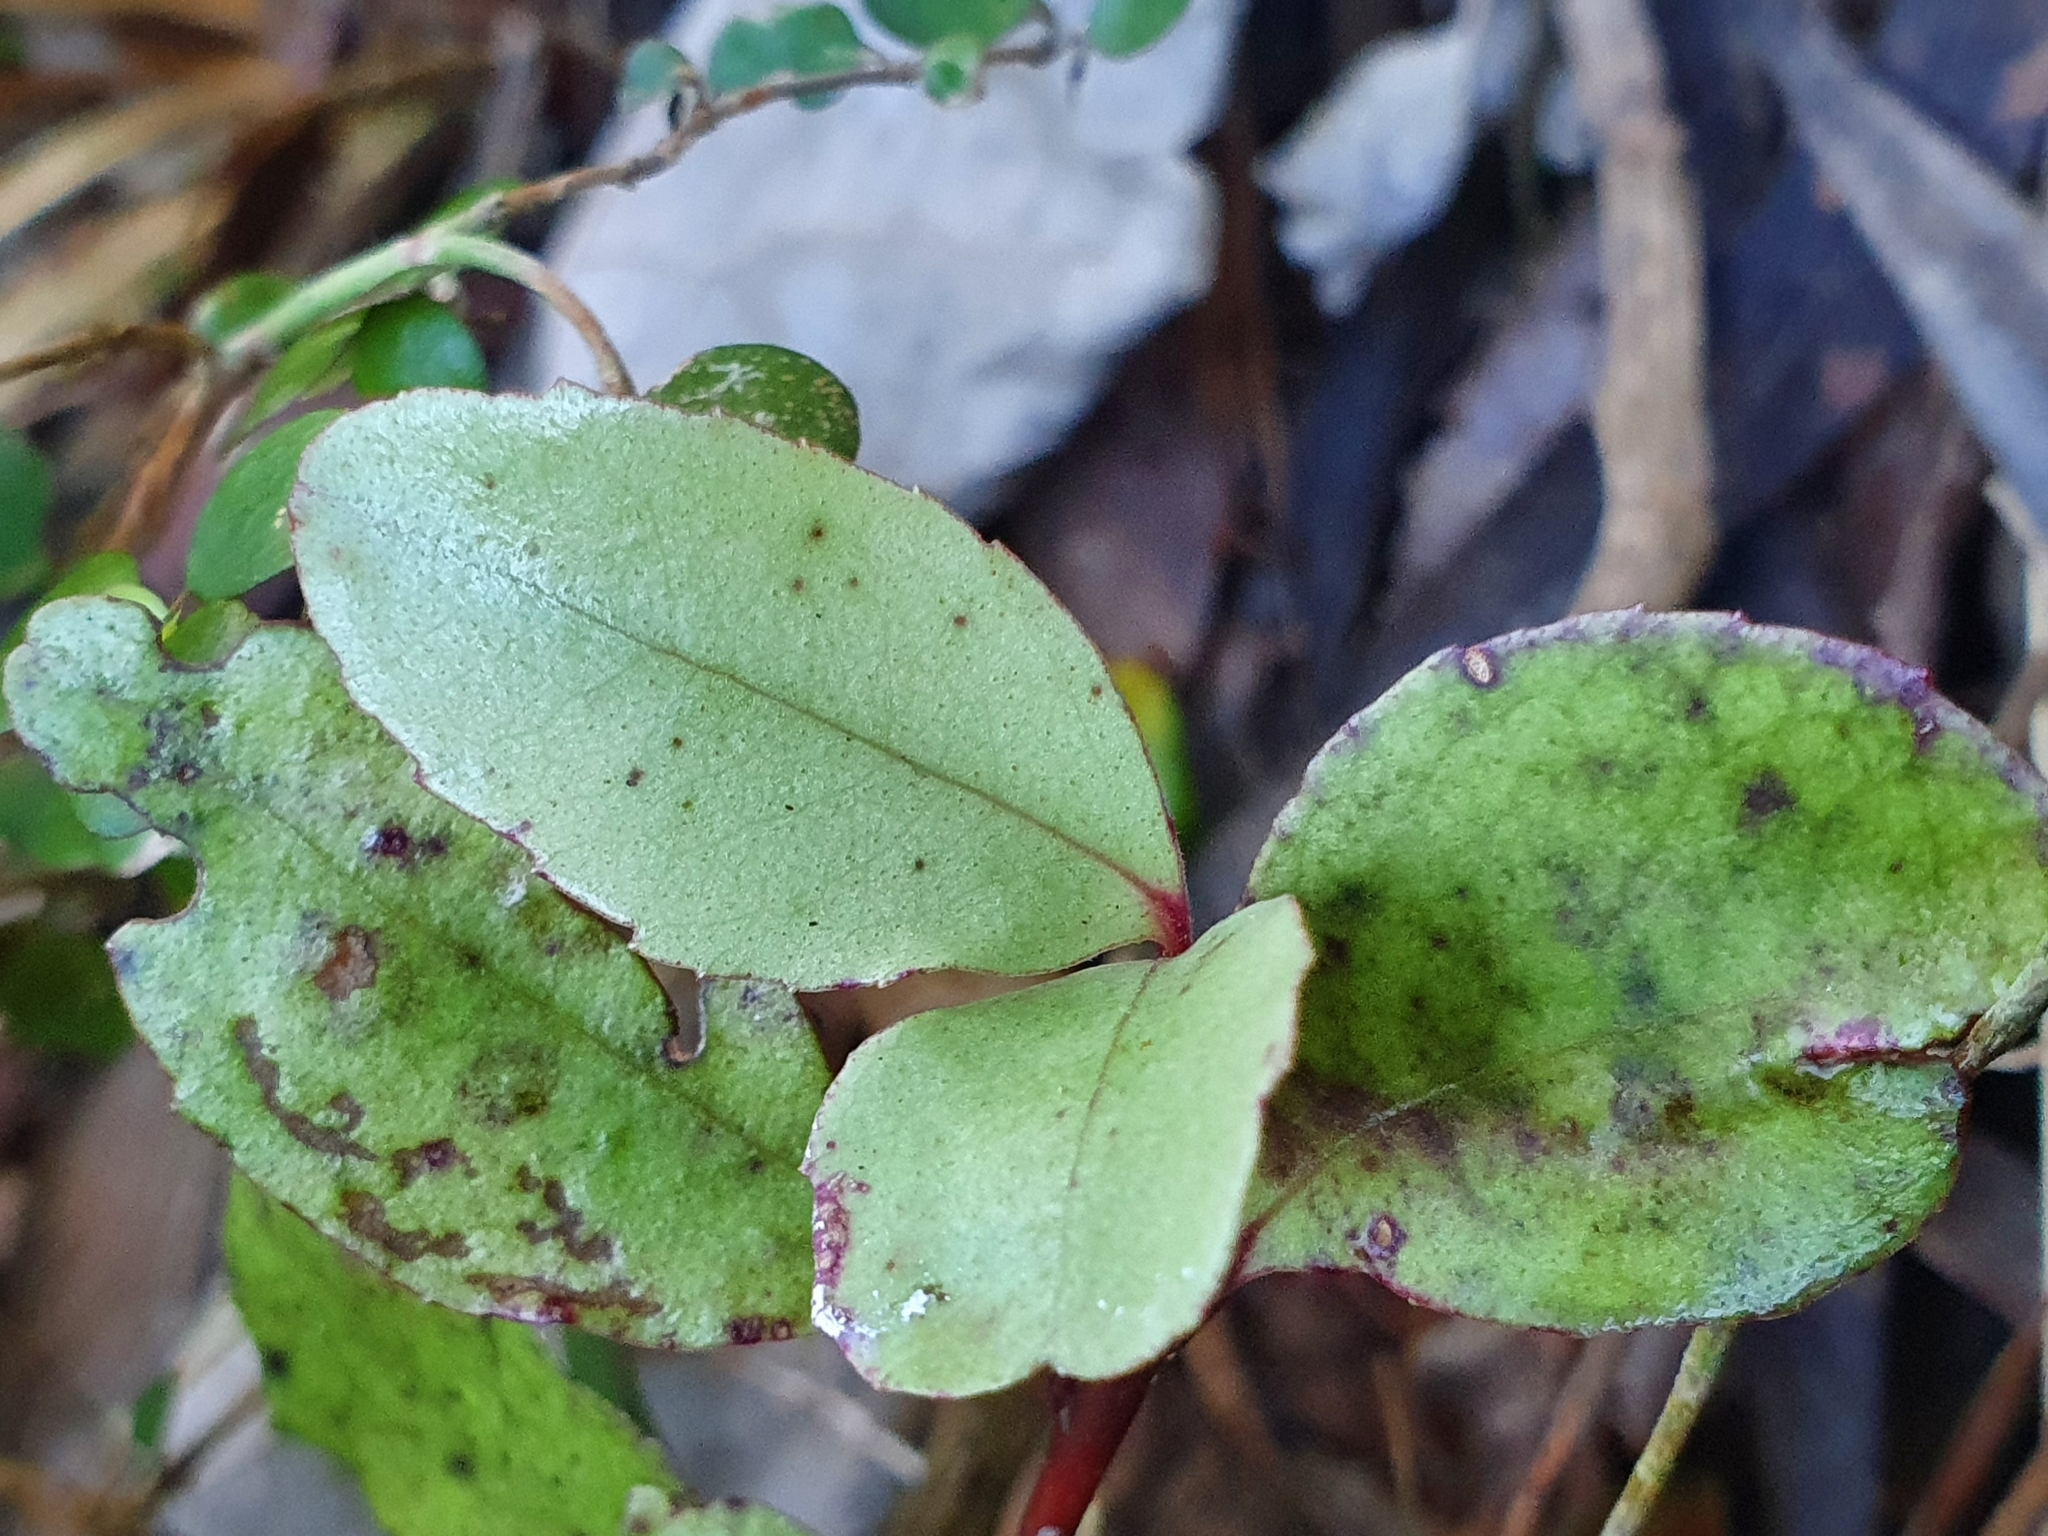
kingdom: Plantae
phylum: Tracheophyta
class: Magnoliopsida
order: Ericales
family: Primulaceae
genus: Myrsine
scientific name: Myrsine australis
